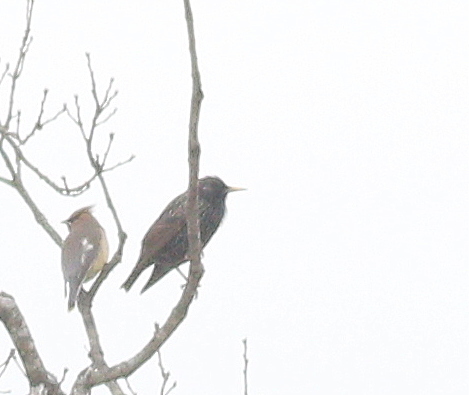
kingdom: Animalia
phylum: Chordata
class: Aves
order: Passeriformes
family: Sturnidae
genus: Sturnus
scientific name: Sturnus vulgaris
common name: Common starling
